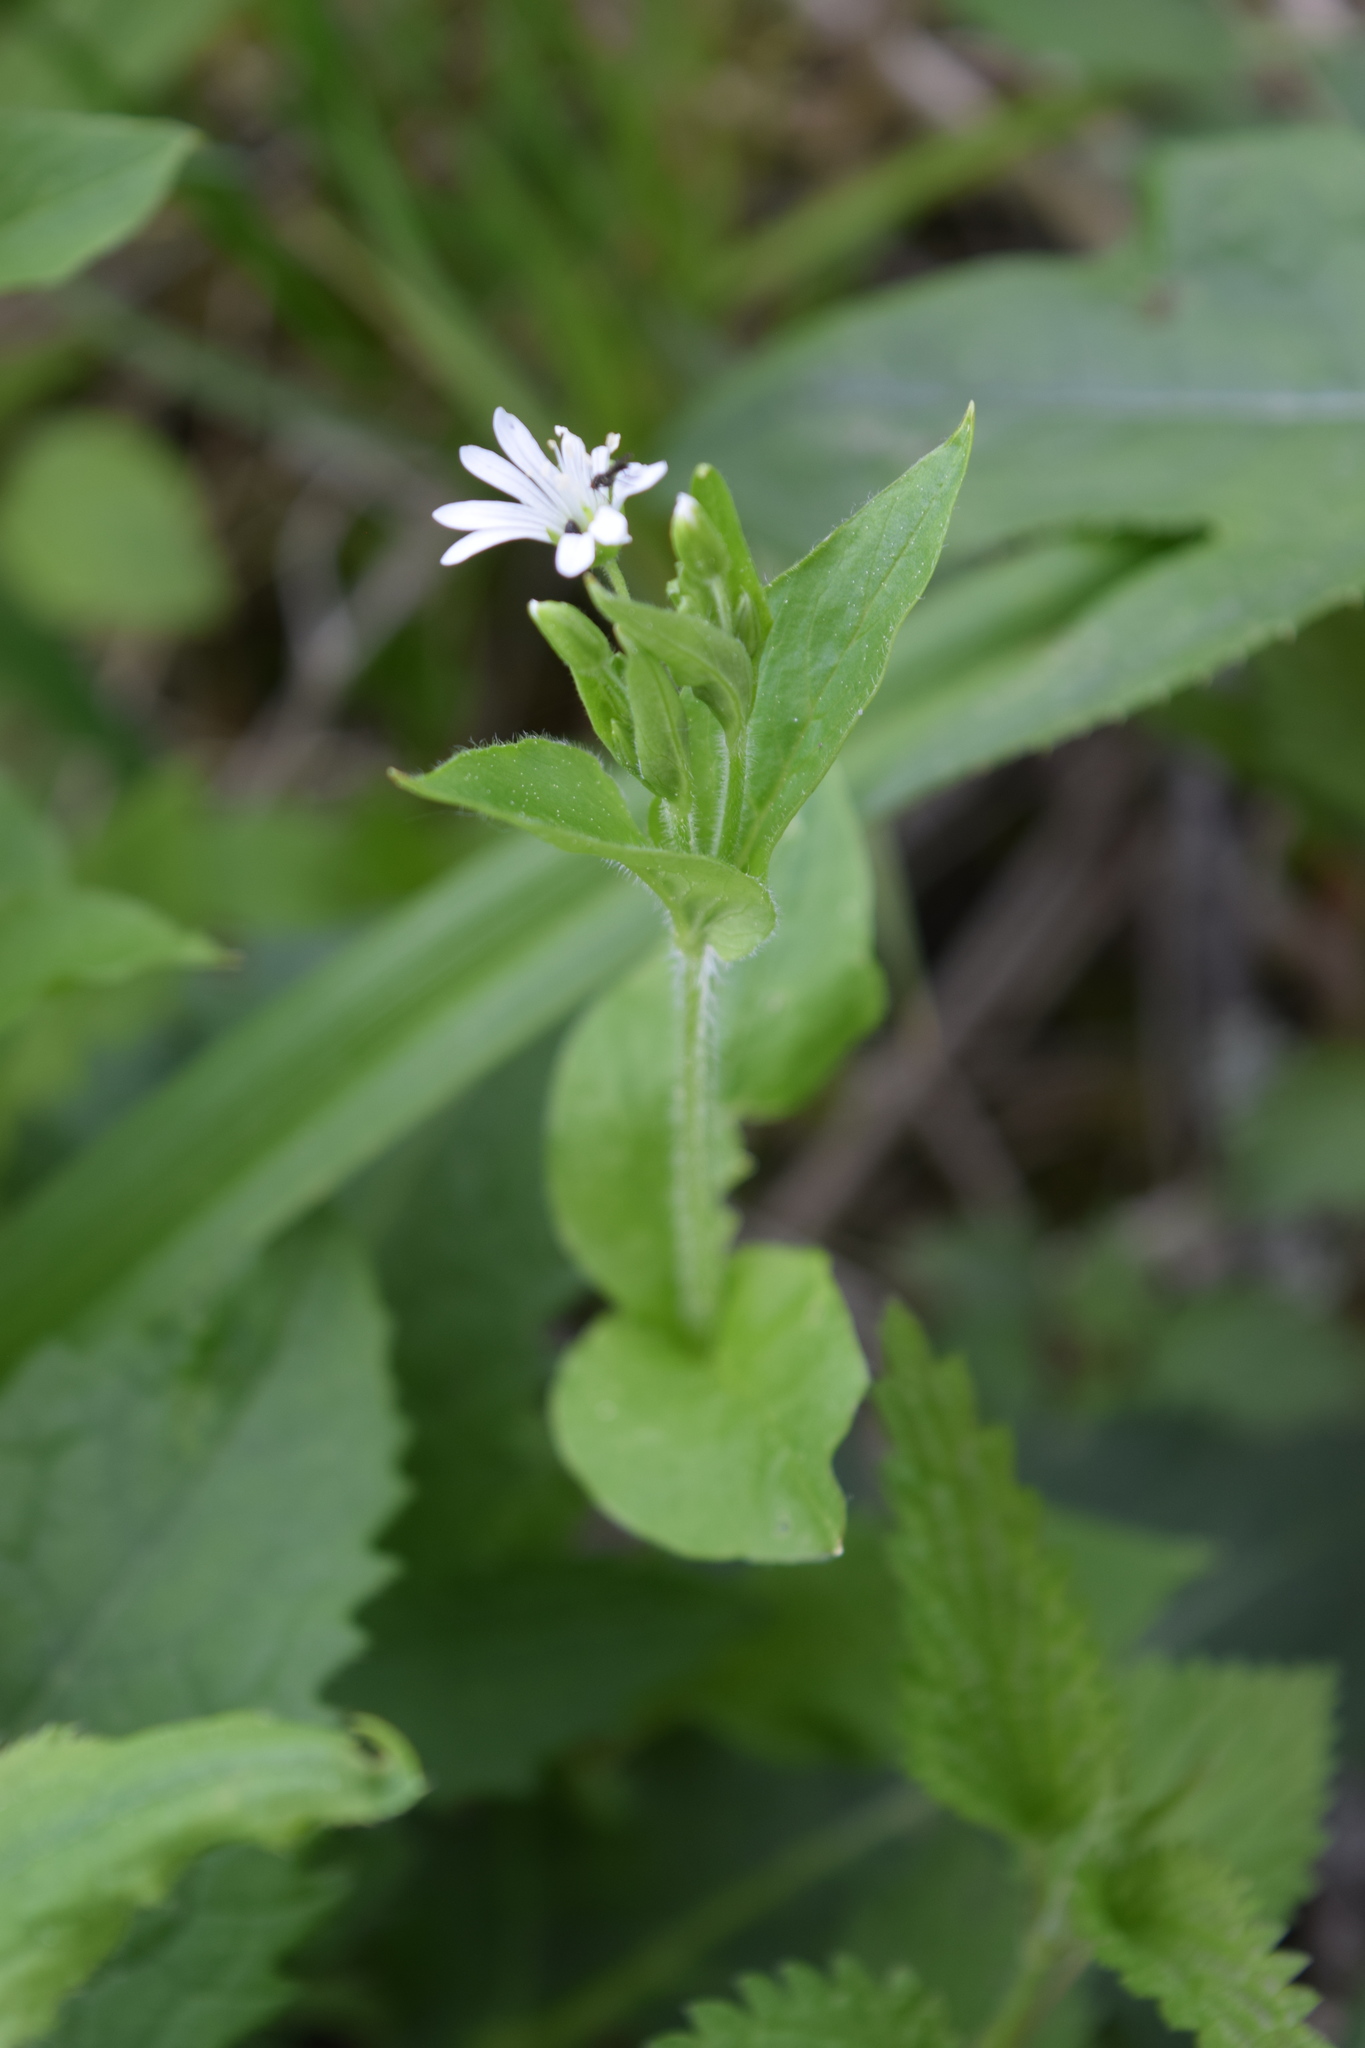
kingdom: Plantae
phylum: Tracheophyta
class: Magnoliopsida
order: Caryophyllales
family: Caryophyllaceae
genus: Stellaria
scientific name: Stellaria nemorum
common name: Wood stitchwort
